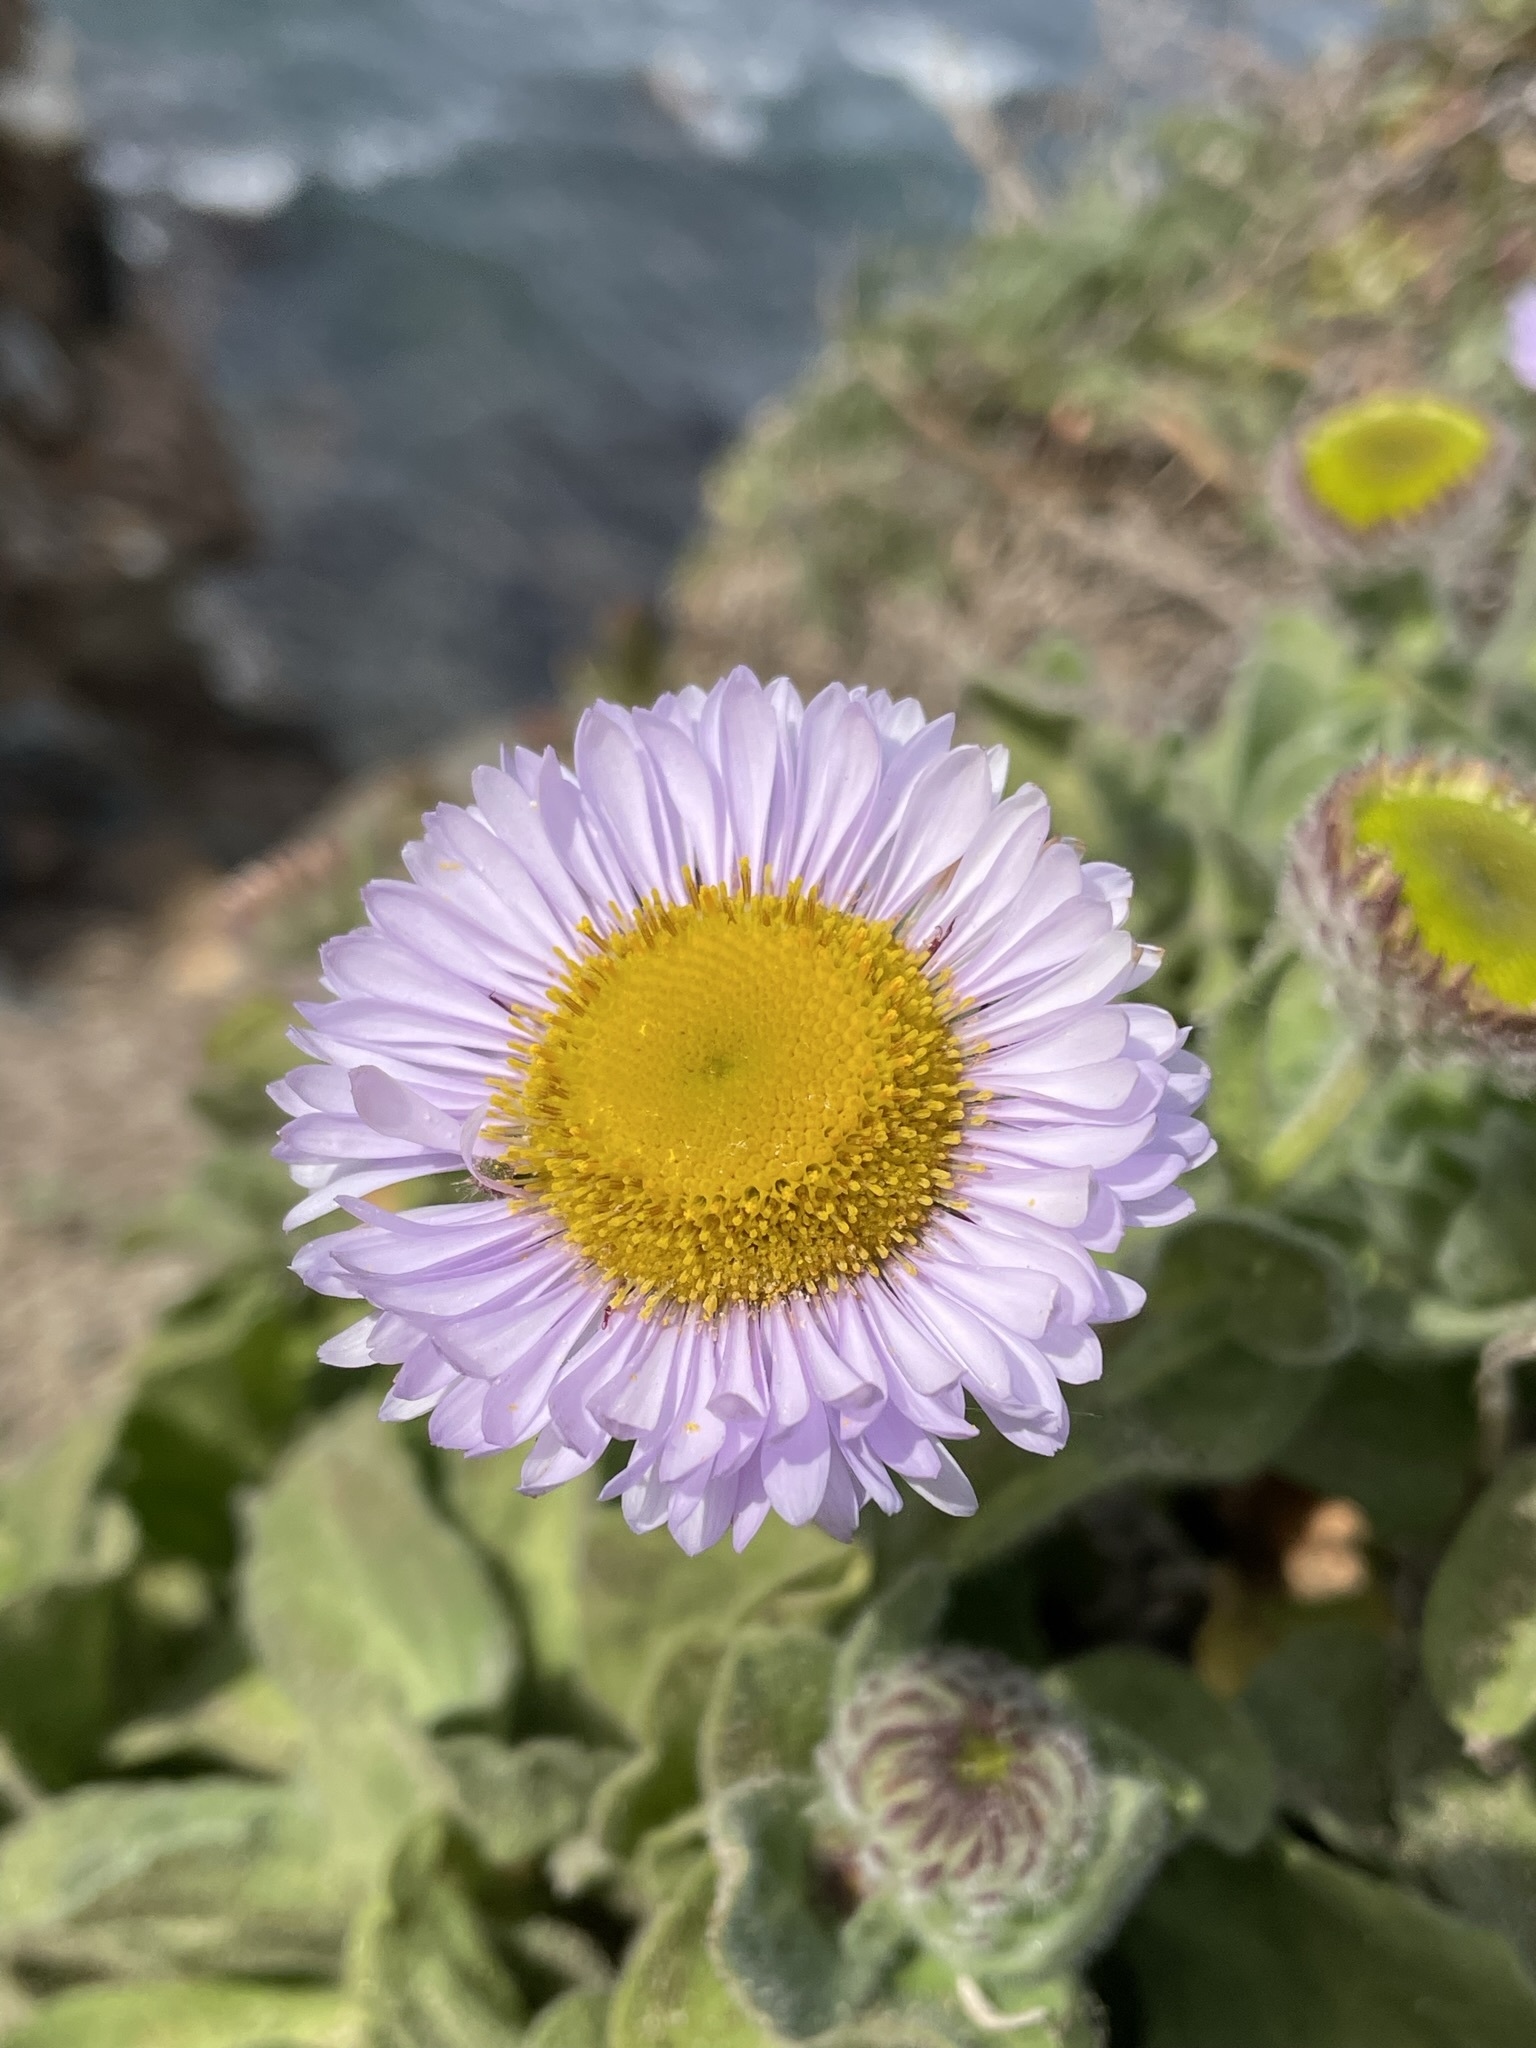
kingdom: Plantae
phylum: Tracheophyta
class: Magnoliopsida
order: Asterales
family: Asteraceae
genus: Erigeron
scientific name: Erigeron glaucus
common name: Seaside daisy
